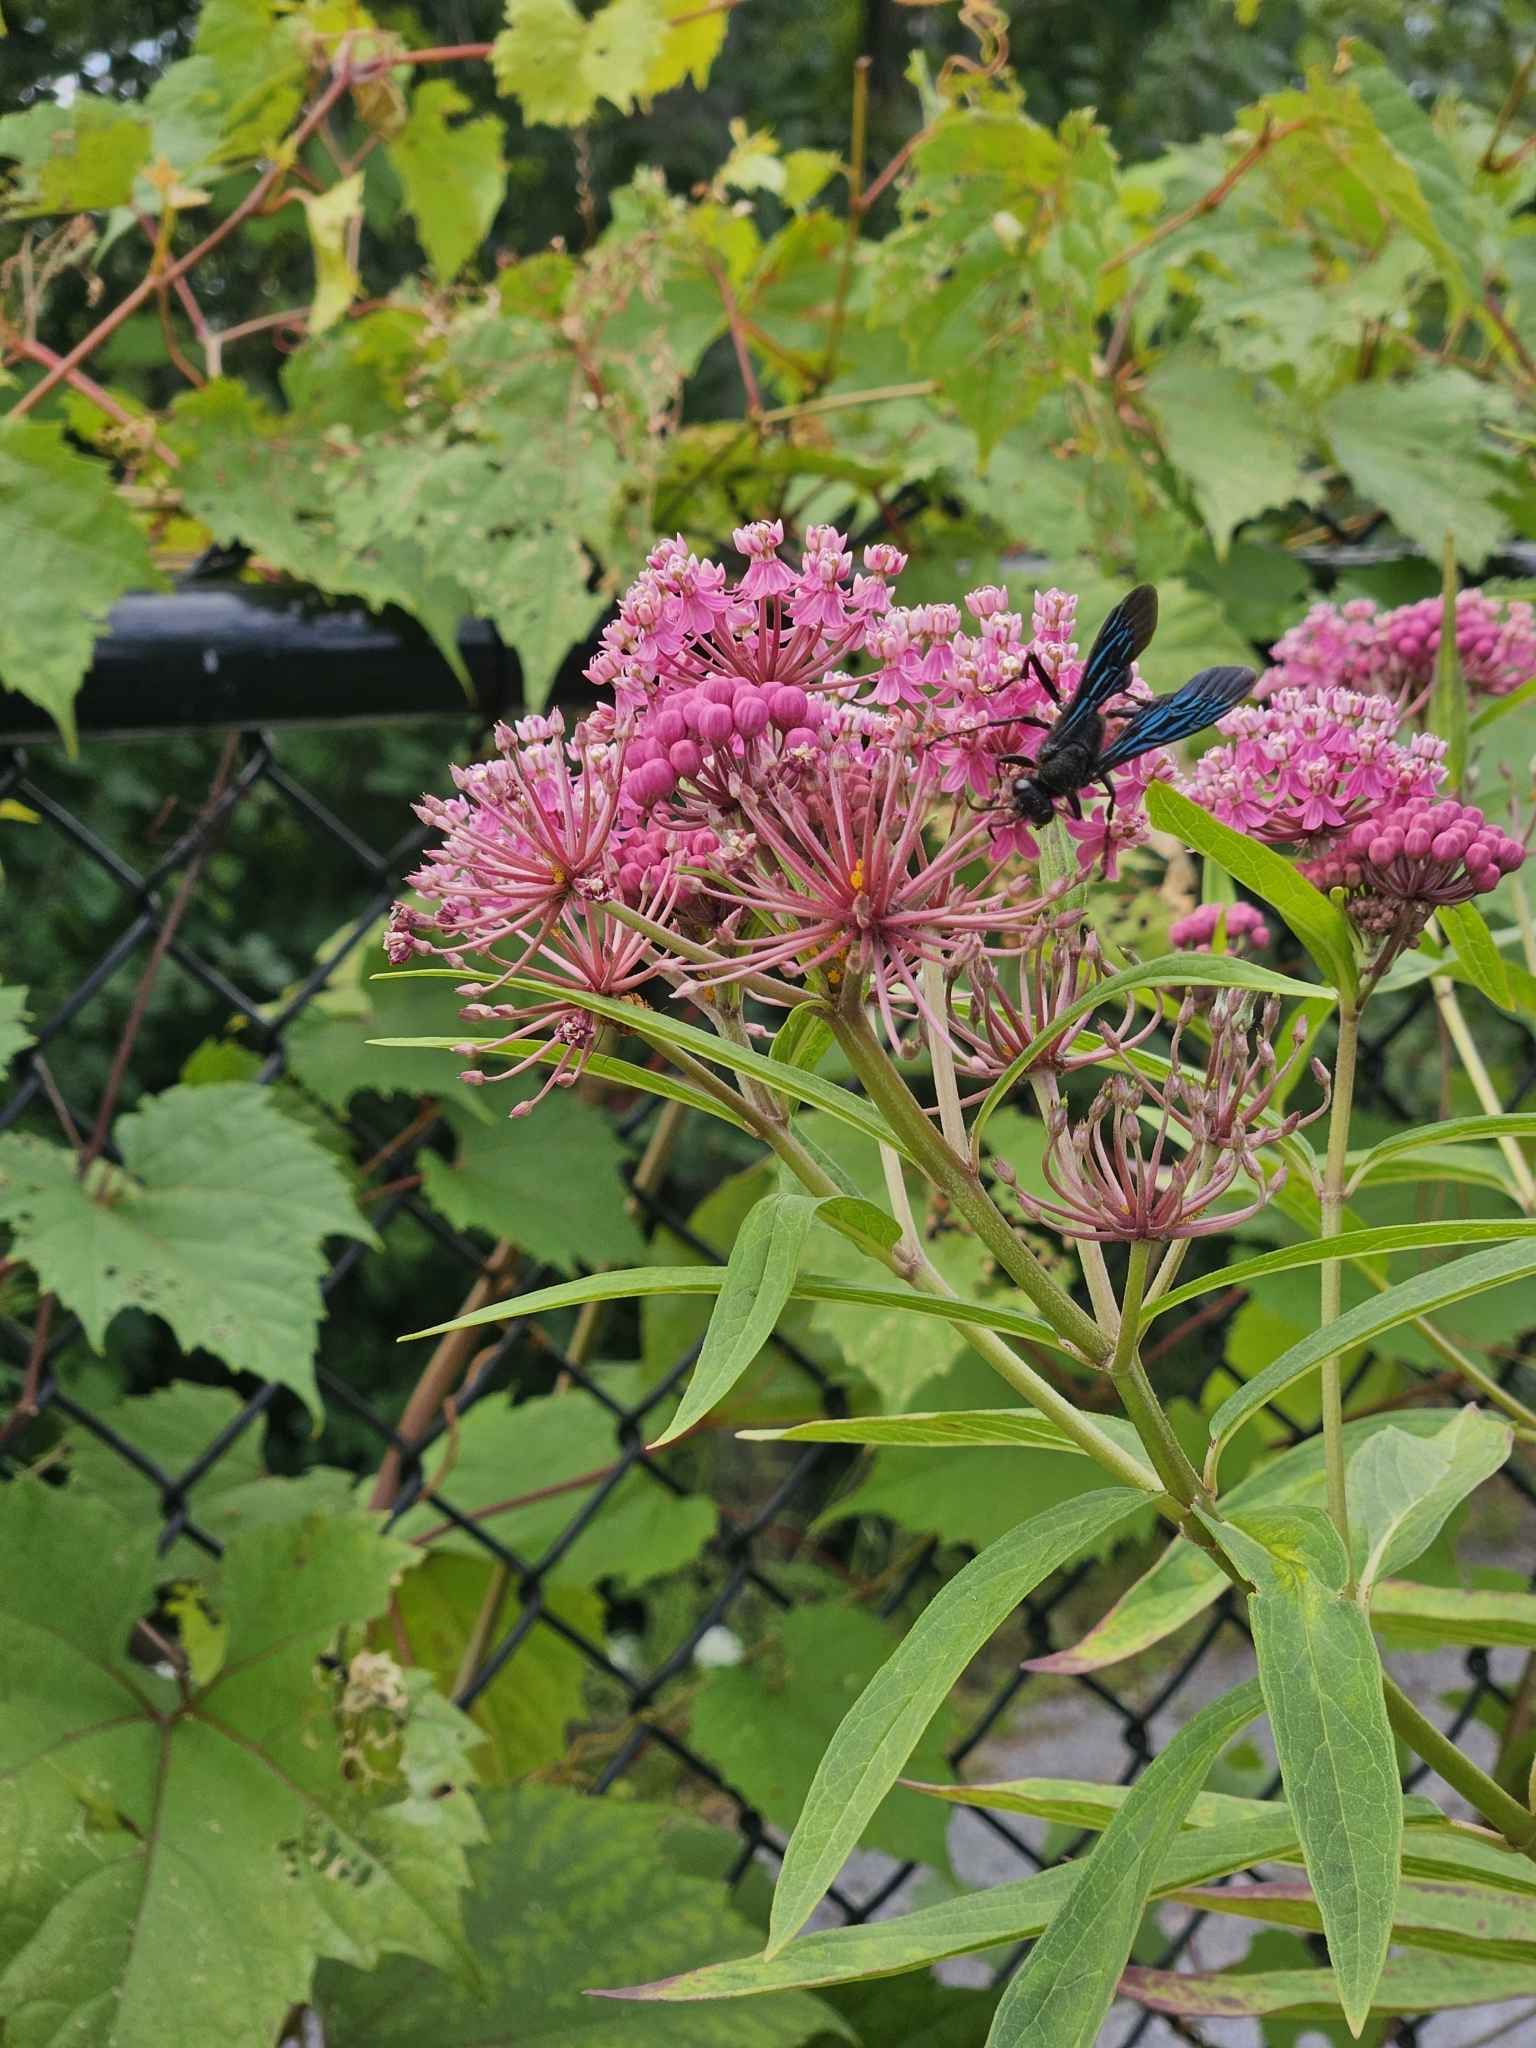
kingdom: Animalia
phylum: Arthropoda
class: Insecta
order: Hymenoptera
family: Sphecidae
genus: Sphex
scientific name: Sphex pensylvanicus
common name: Great black digger wasp
